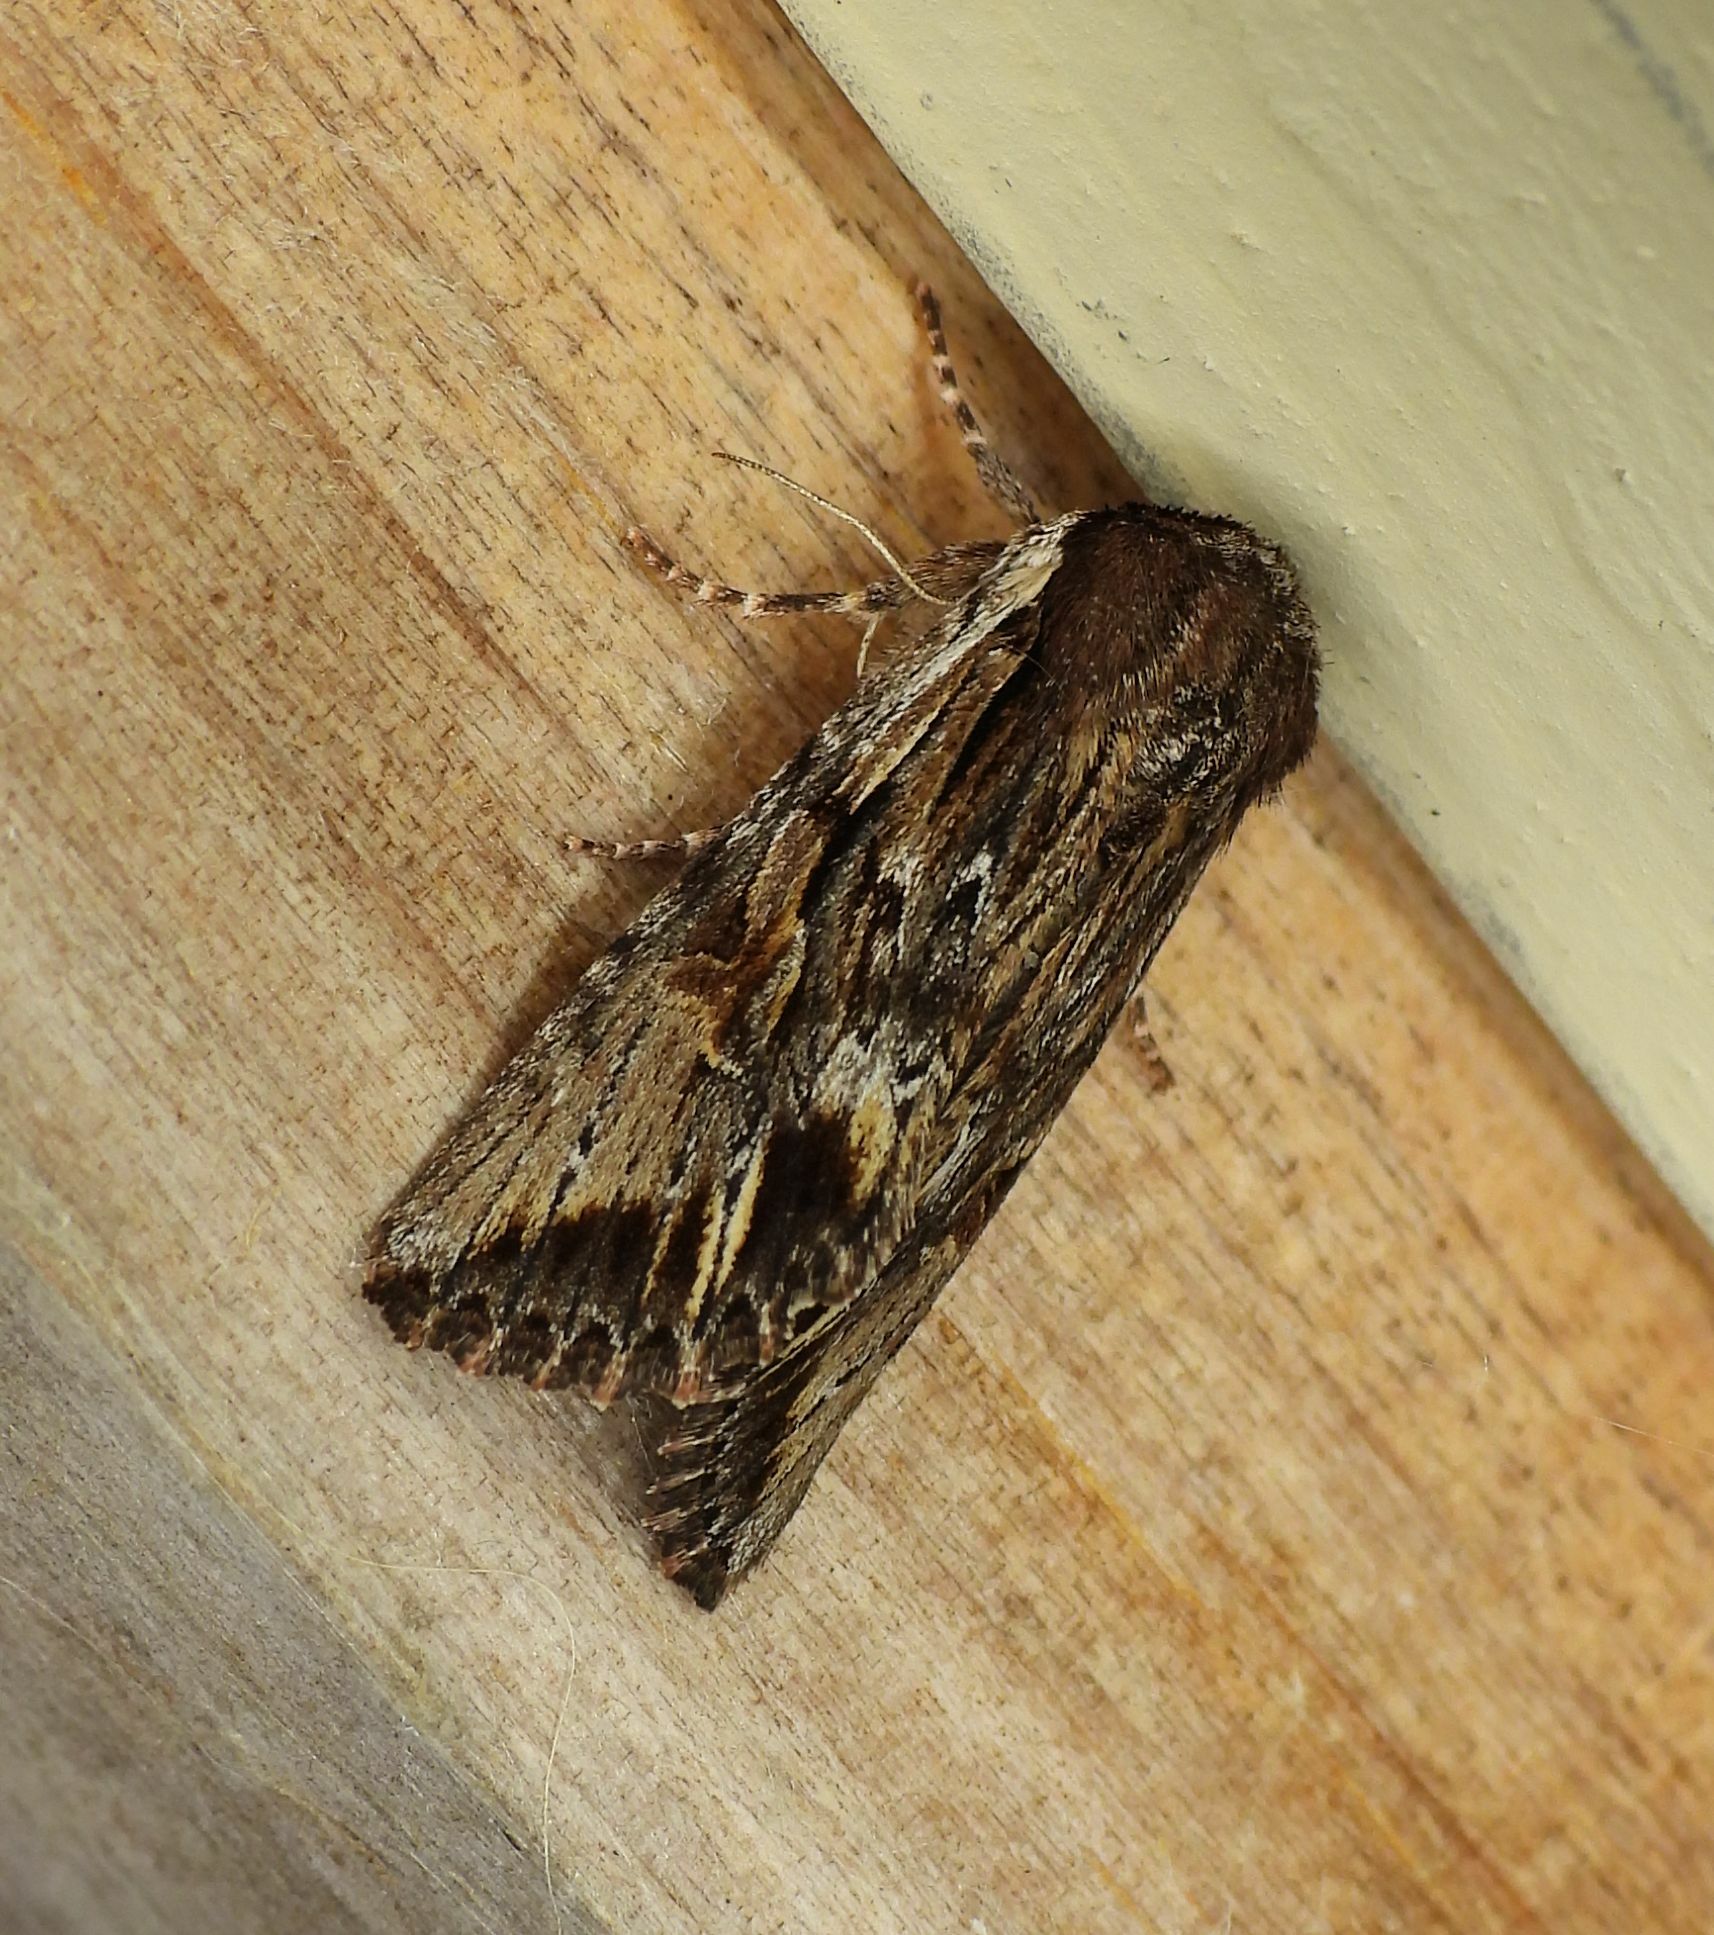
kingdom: Animalia
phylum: Arthropoda
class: Insecta
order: Lepidoptera
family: Noctuidae
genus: Achatia
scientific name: Achatia evicta
